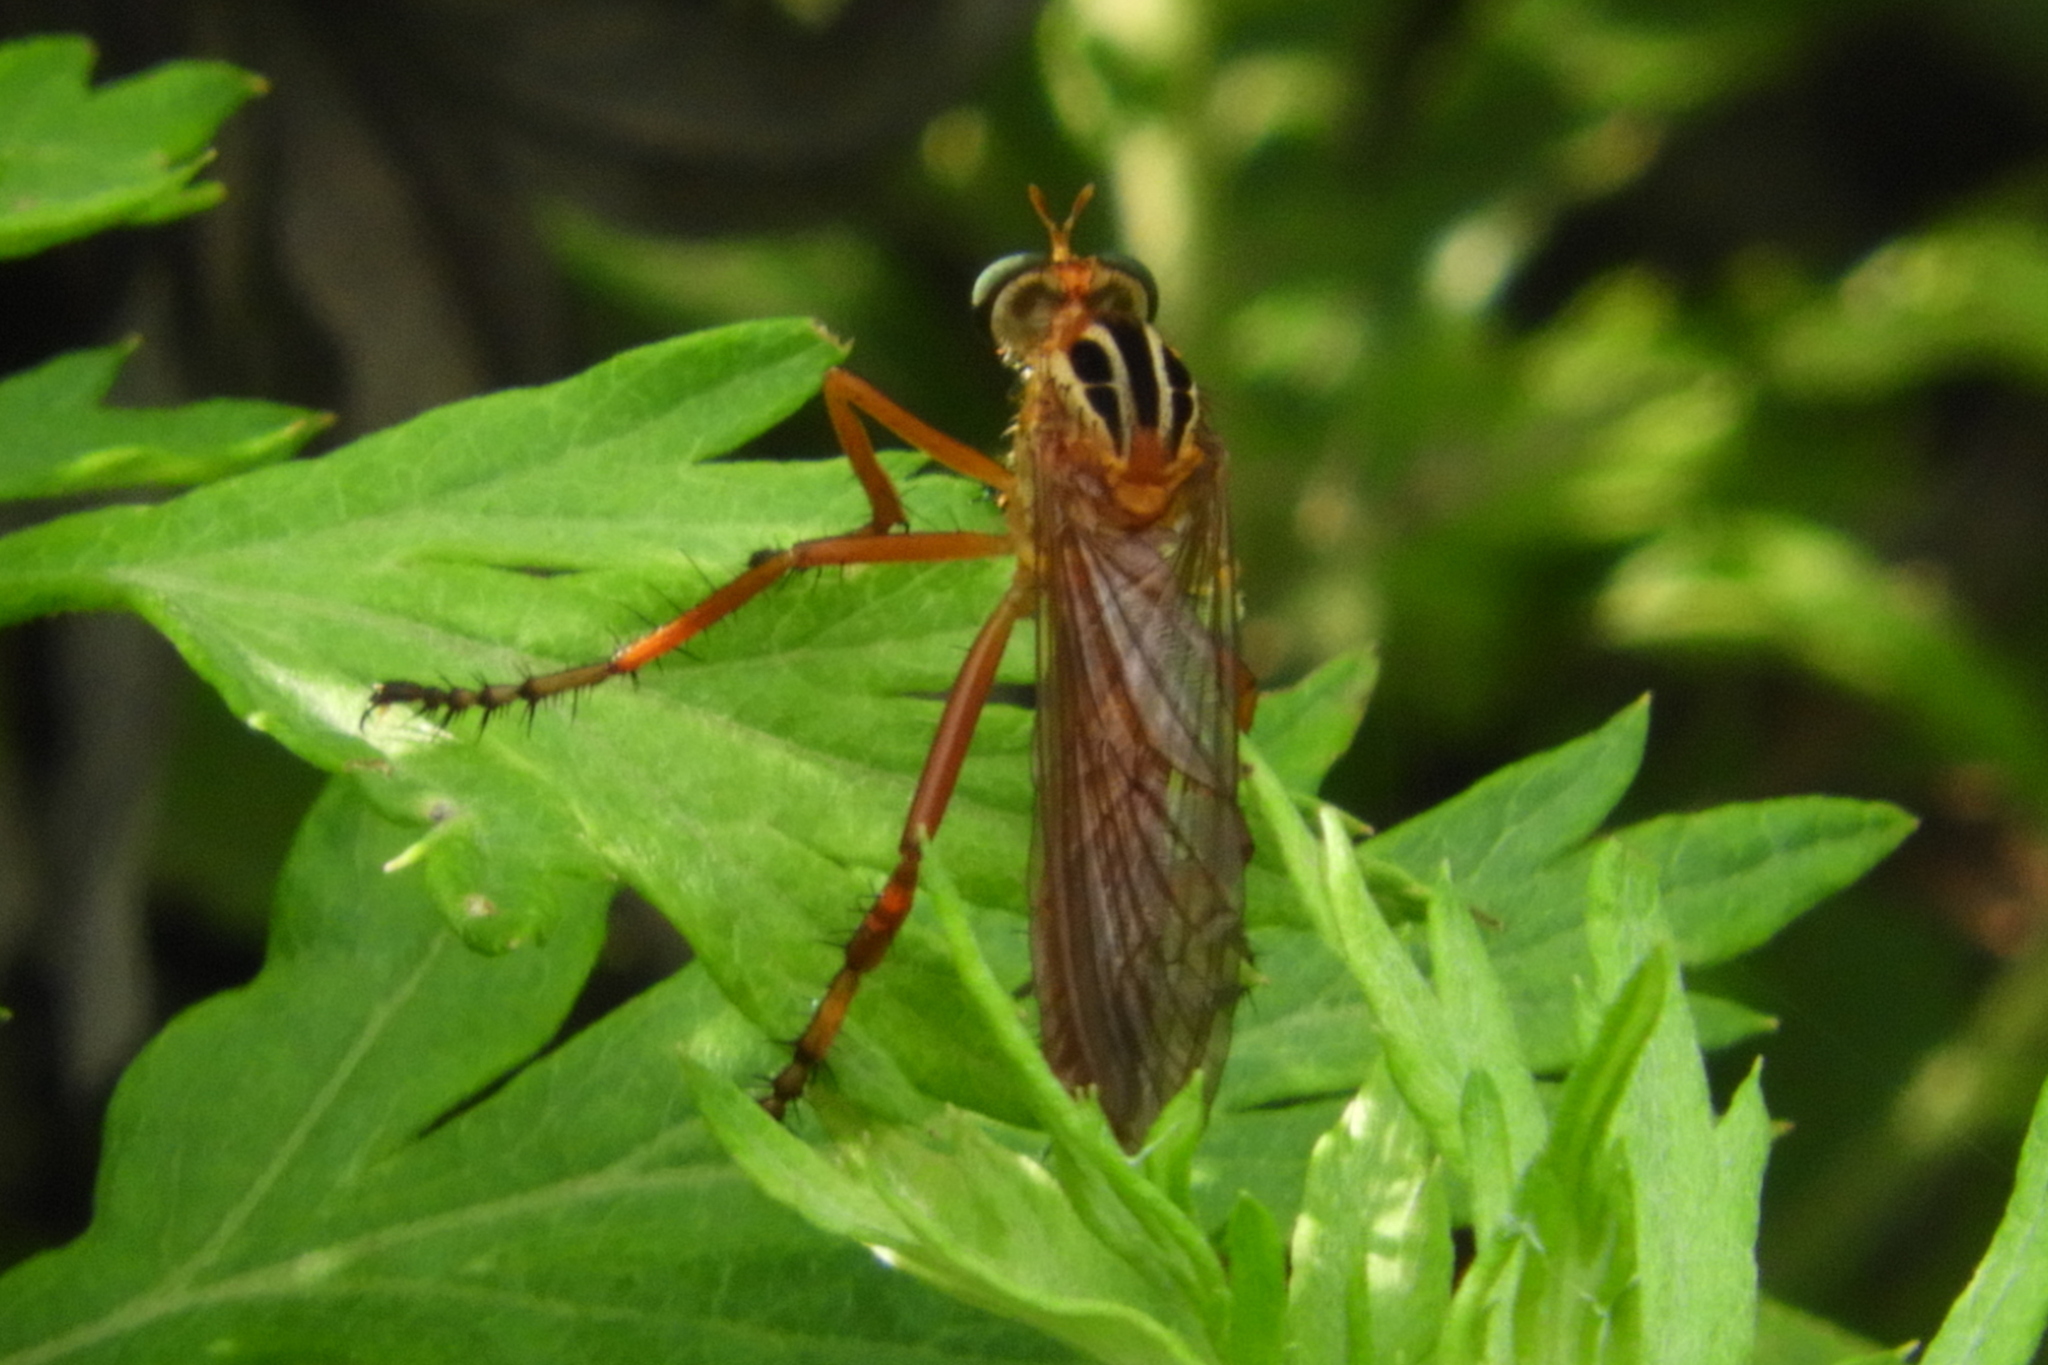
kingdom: Animalia
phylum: Arthropoda
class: Insecta
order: Diptera
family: Asilidae
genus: Diogmites
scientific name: Diogmites neoternatus
